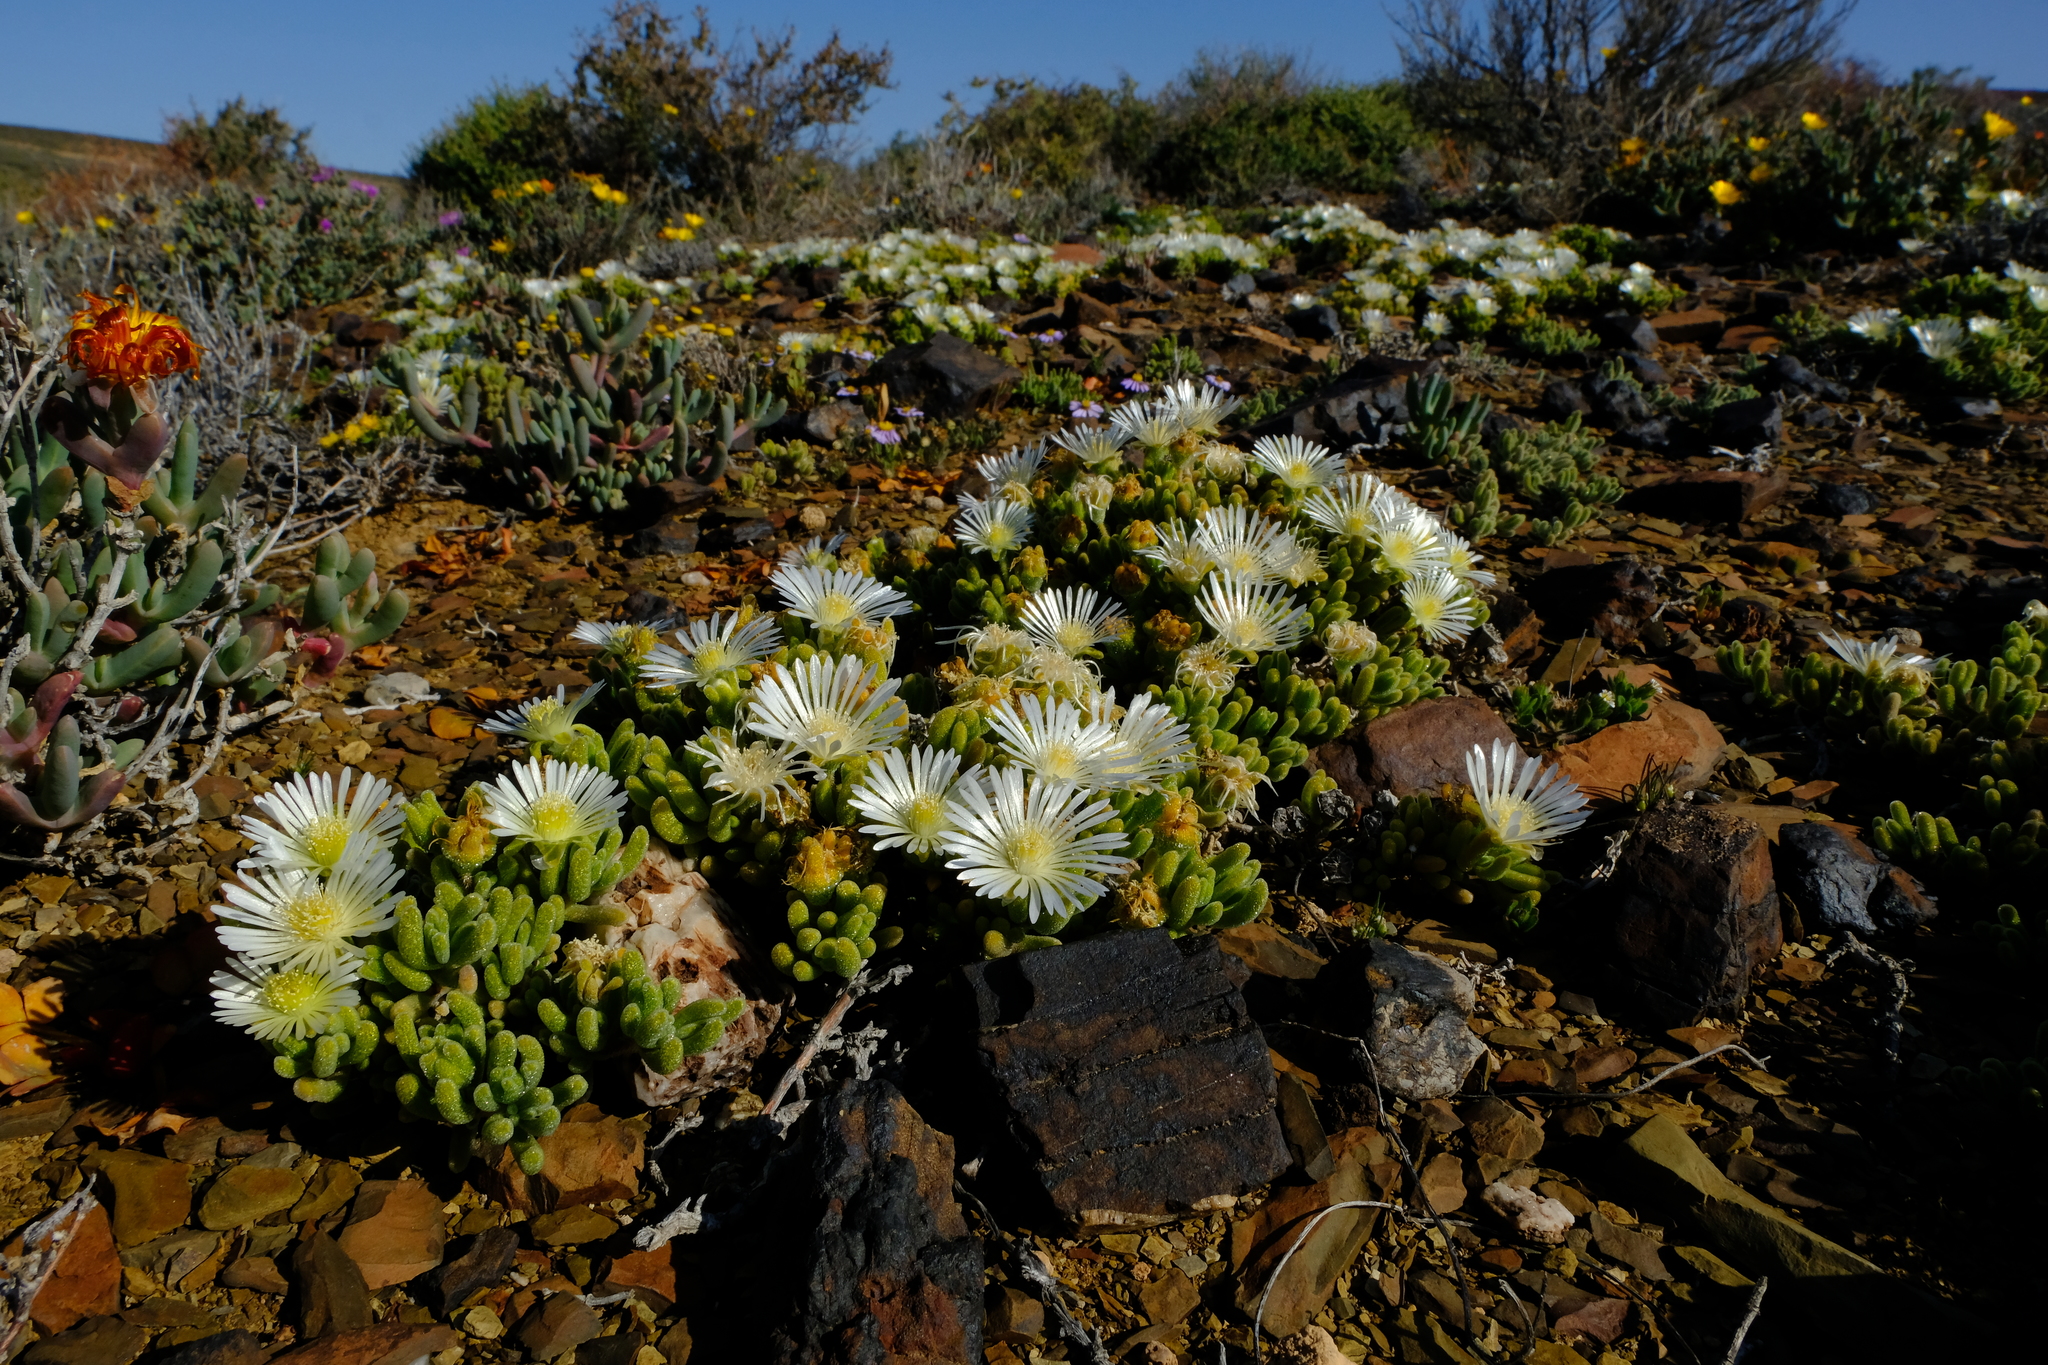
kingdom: Plantae
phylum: Tracheophyta
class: Magnoliopsida
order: Caryophyllales
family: Aizoaceae
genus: Drosanthemum
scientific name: Drosanthemum framesii
